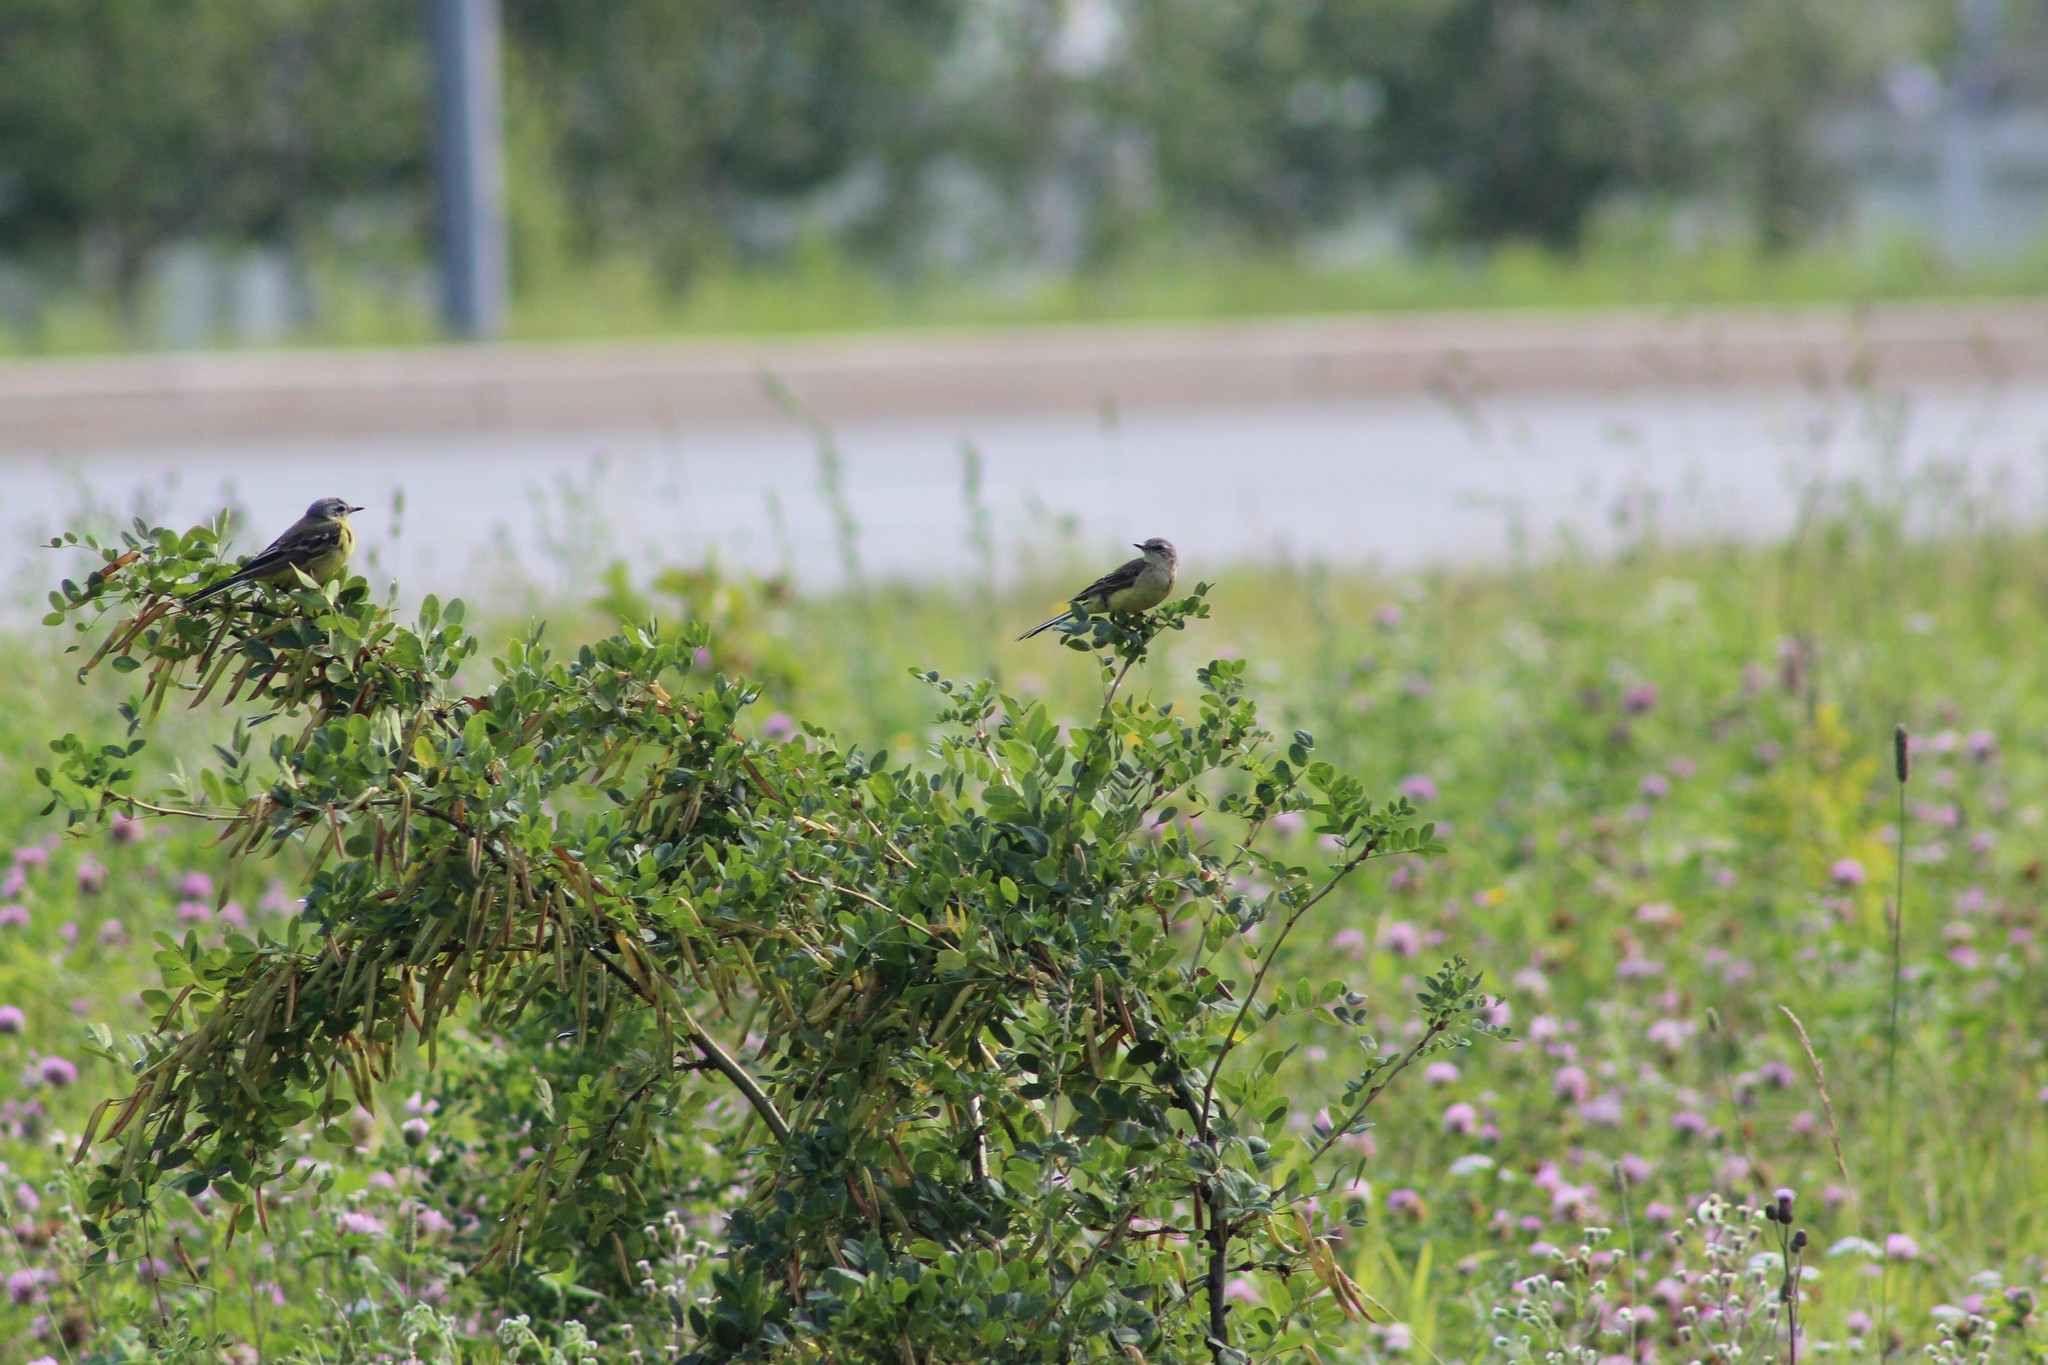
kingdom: Animalia
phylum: Chordata
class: Aves
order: Passeriformes
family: Motacillidae
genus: Motacilla
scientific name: Motacilla flava
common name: Western yellow wagtail
